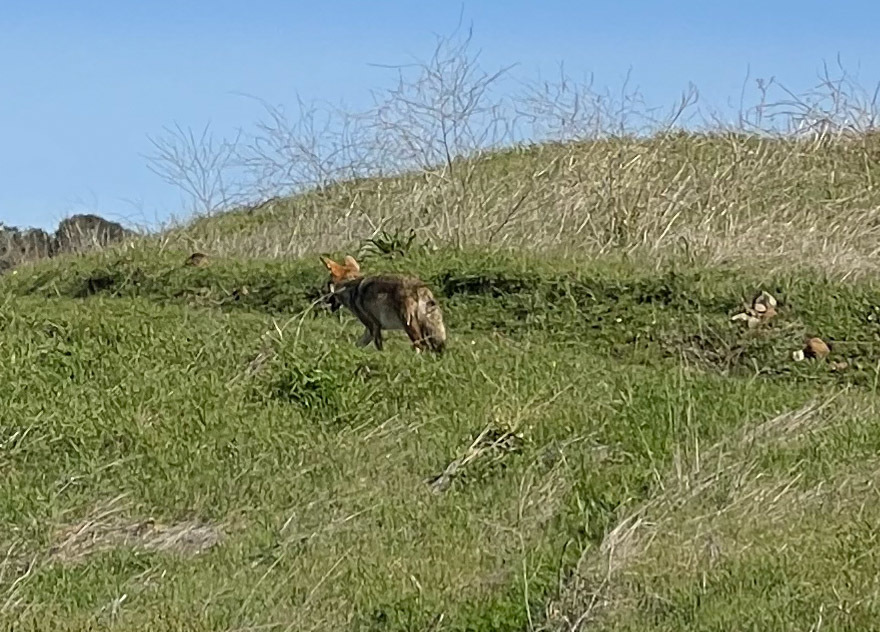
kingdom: Animalia
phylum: Chordata
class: Mammalia
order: Carnivora
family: Canidae
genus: Canis
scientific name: Canis latrans
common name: Coyote
